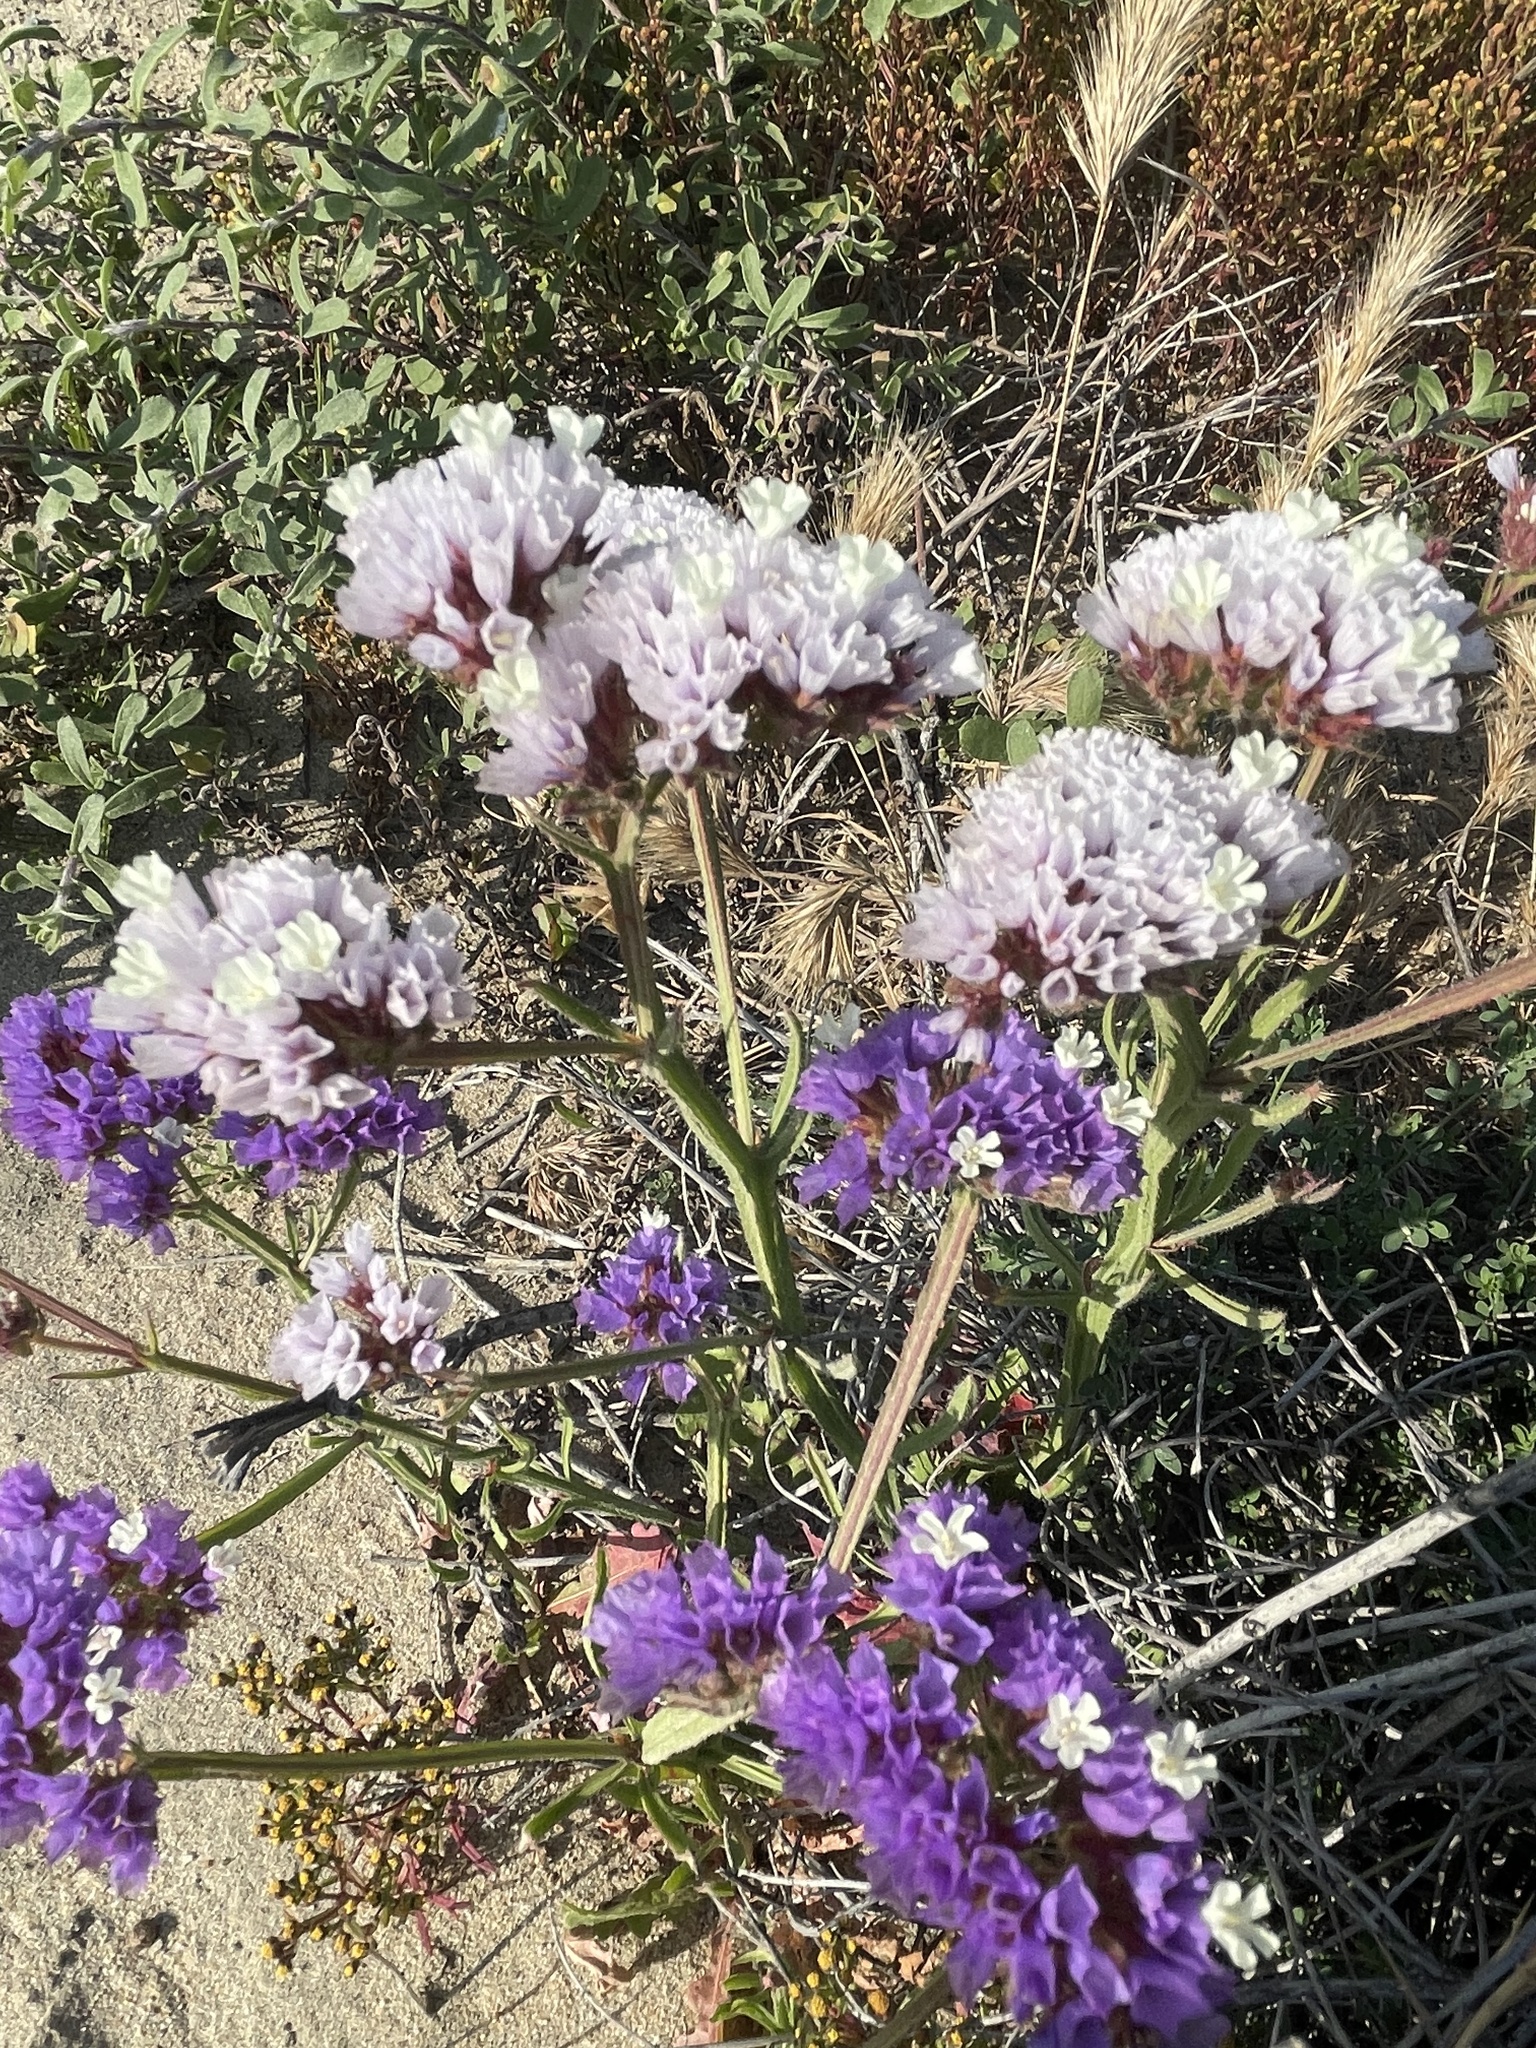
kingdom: Plantae
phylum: Tracheophyta
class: Magnoliopsida
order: Caryophyllales
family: Plumbaginaceae
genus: Limonium
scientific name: Limonium sinuatum
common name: Statice
